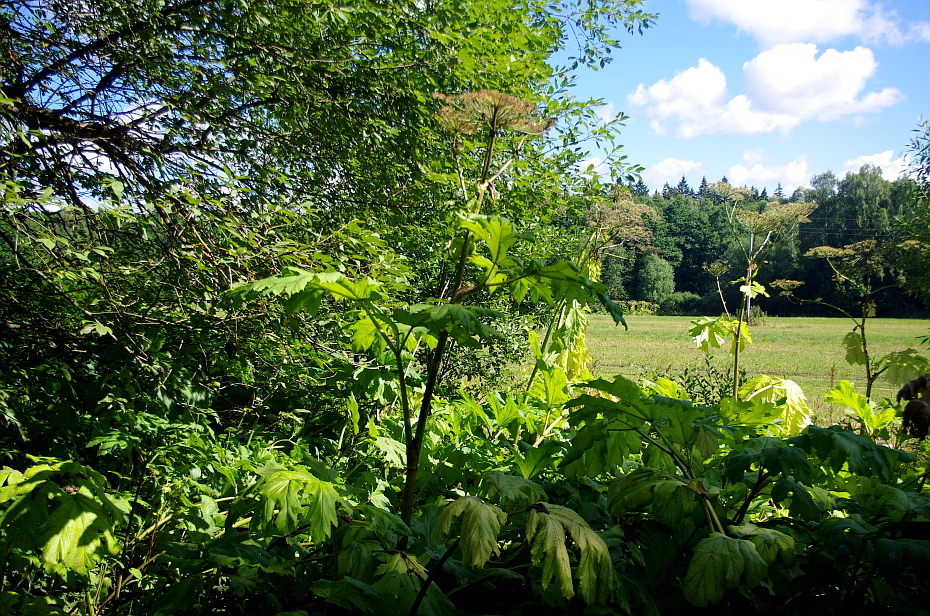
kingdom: Plantae
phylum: Tracheophyta
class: Magnoliopsida
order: Apiales
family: Apiaceae
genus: Heracleum
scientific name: Heracleum sosnowskyi
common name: Sosnowsky's hogweed
